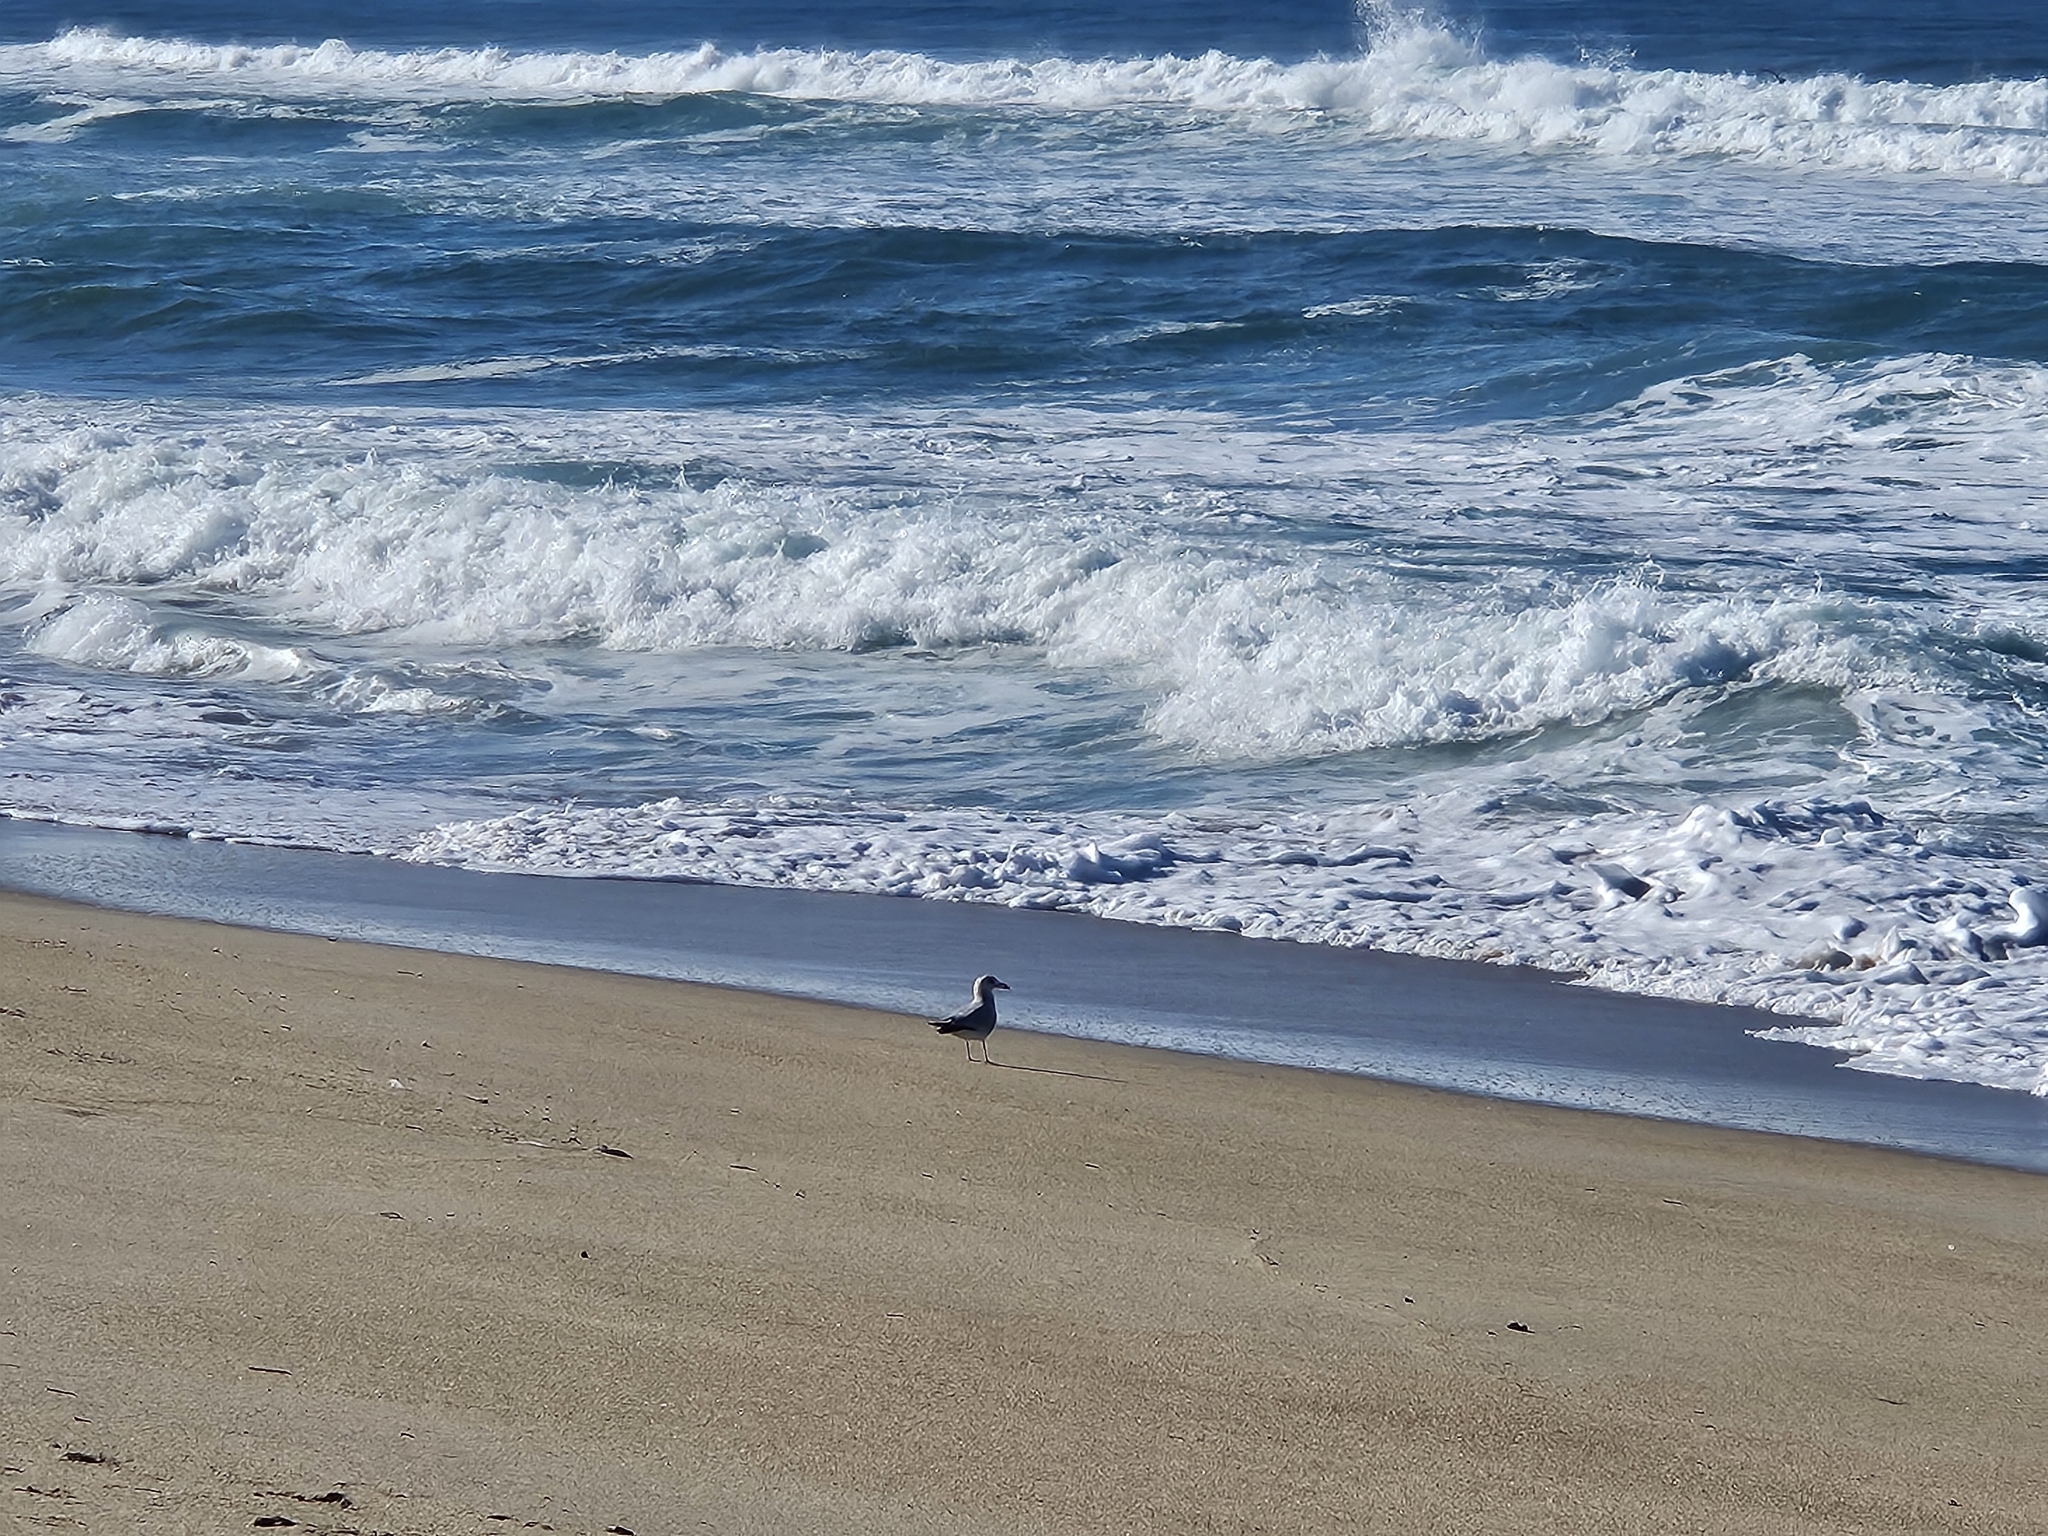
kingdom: Animalia
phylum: Chordata
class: Aves
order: Charadriiformes
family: Laridae
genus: Larus
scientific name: Larus
